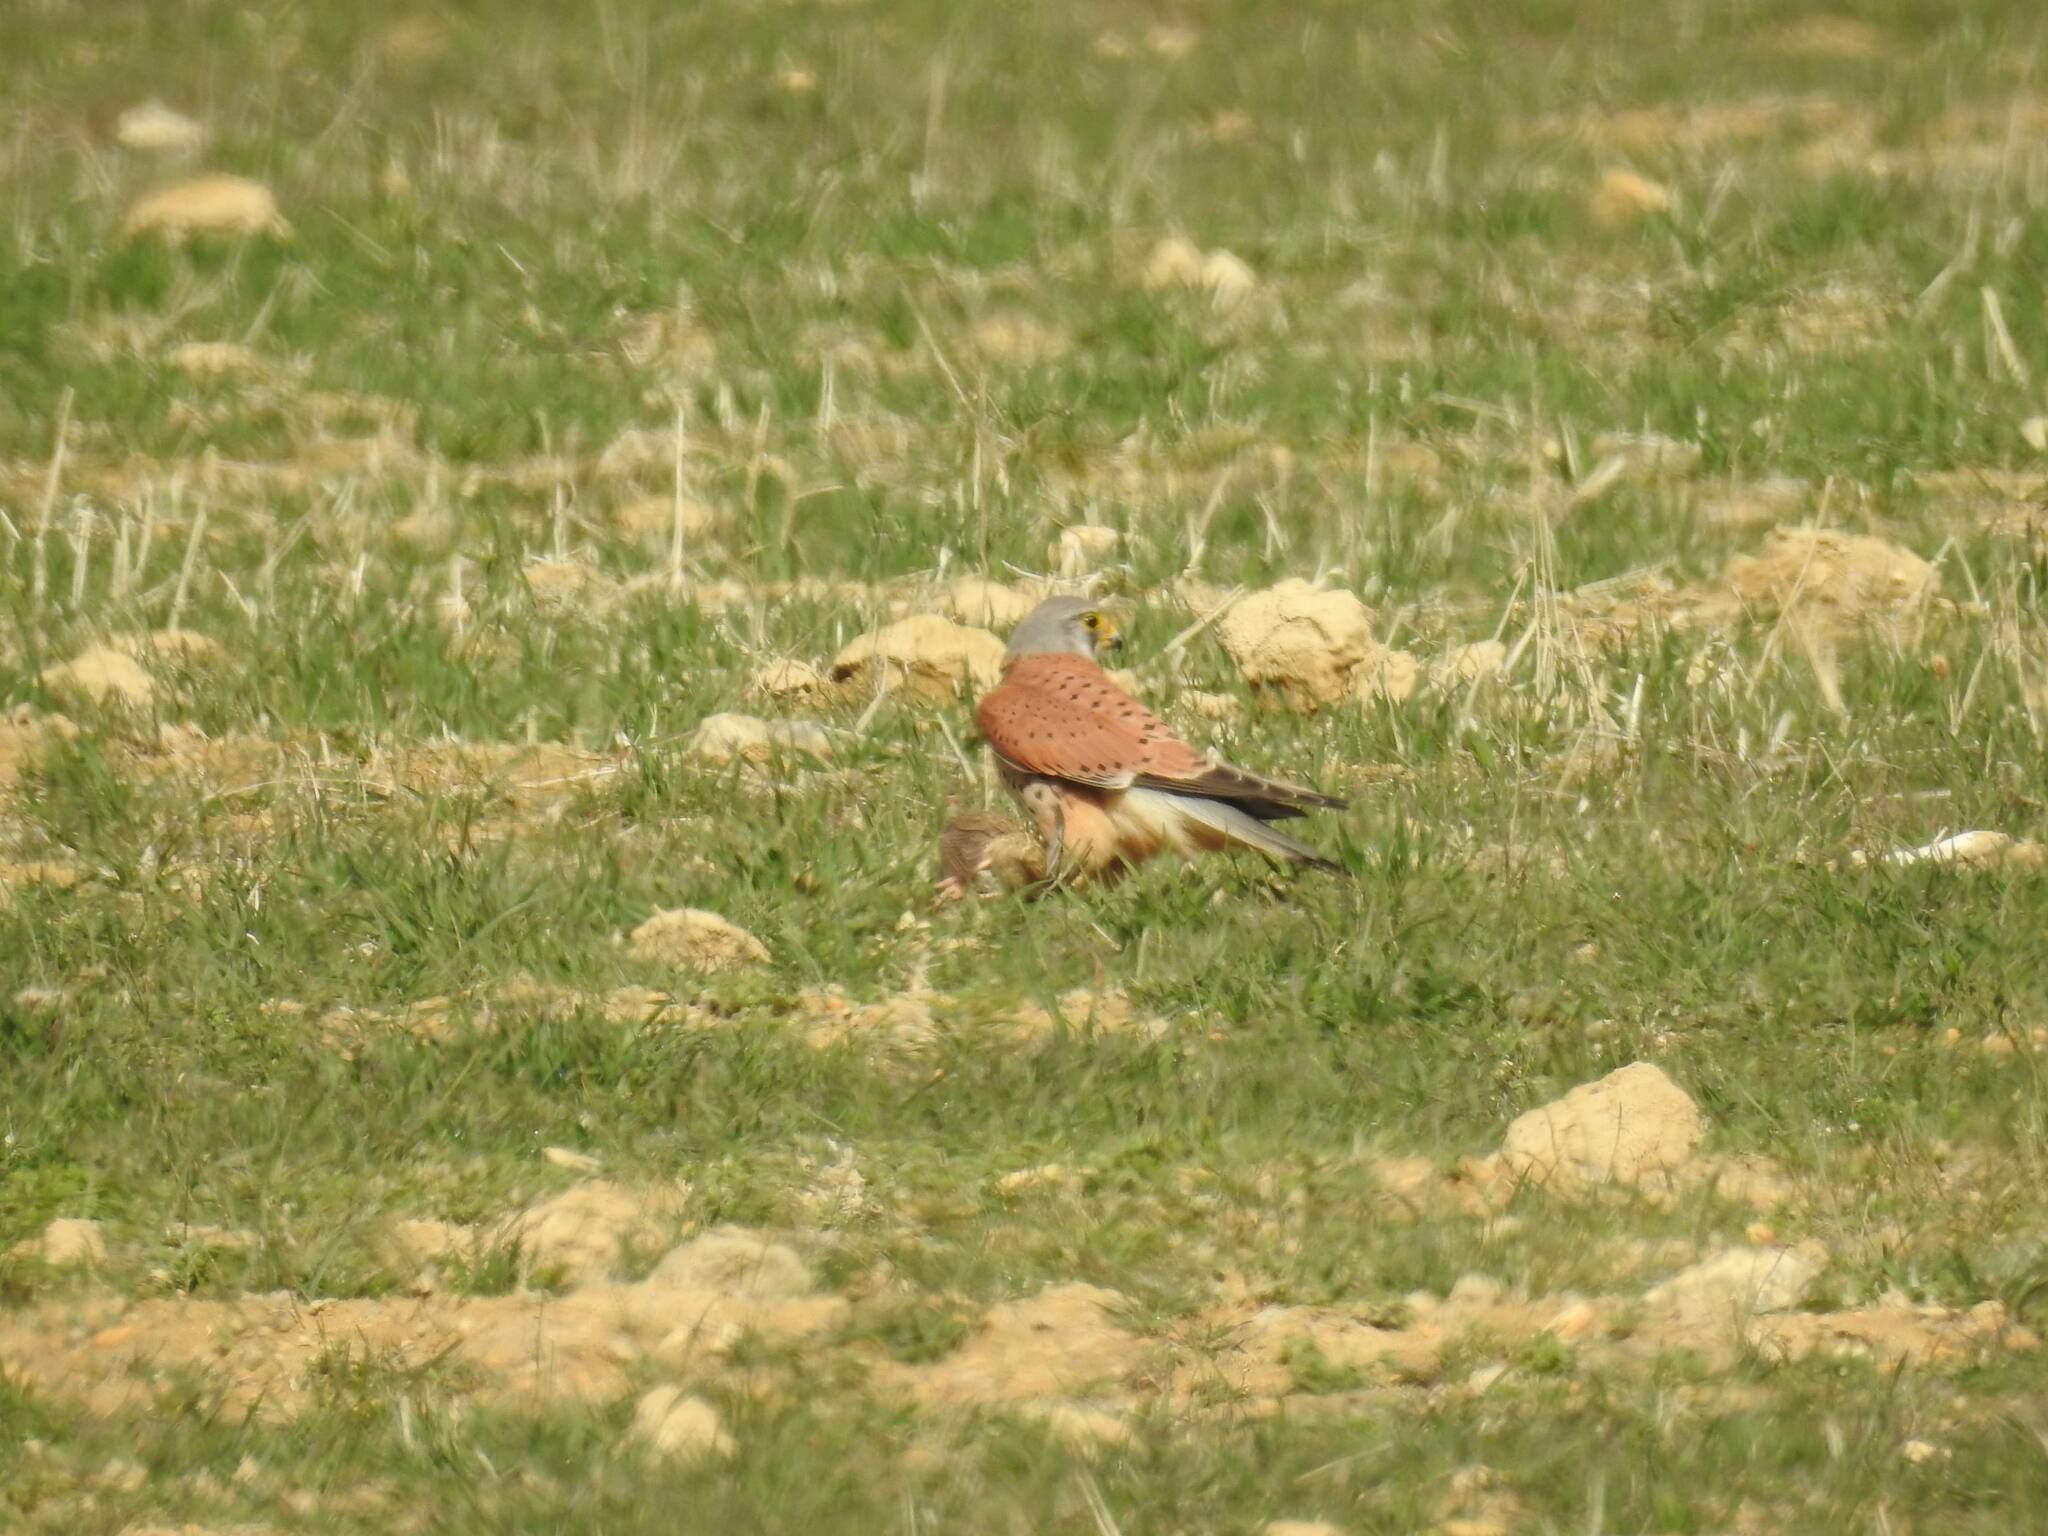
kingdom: Animalia
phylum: Chordata
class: Aves
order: Falconiformes
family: Falconidae
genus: Falco
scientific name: Falco tinnunculus
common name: Common kestrel
